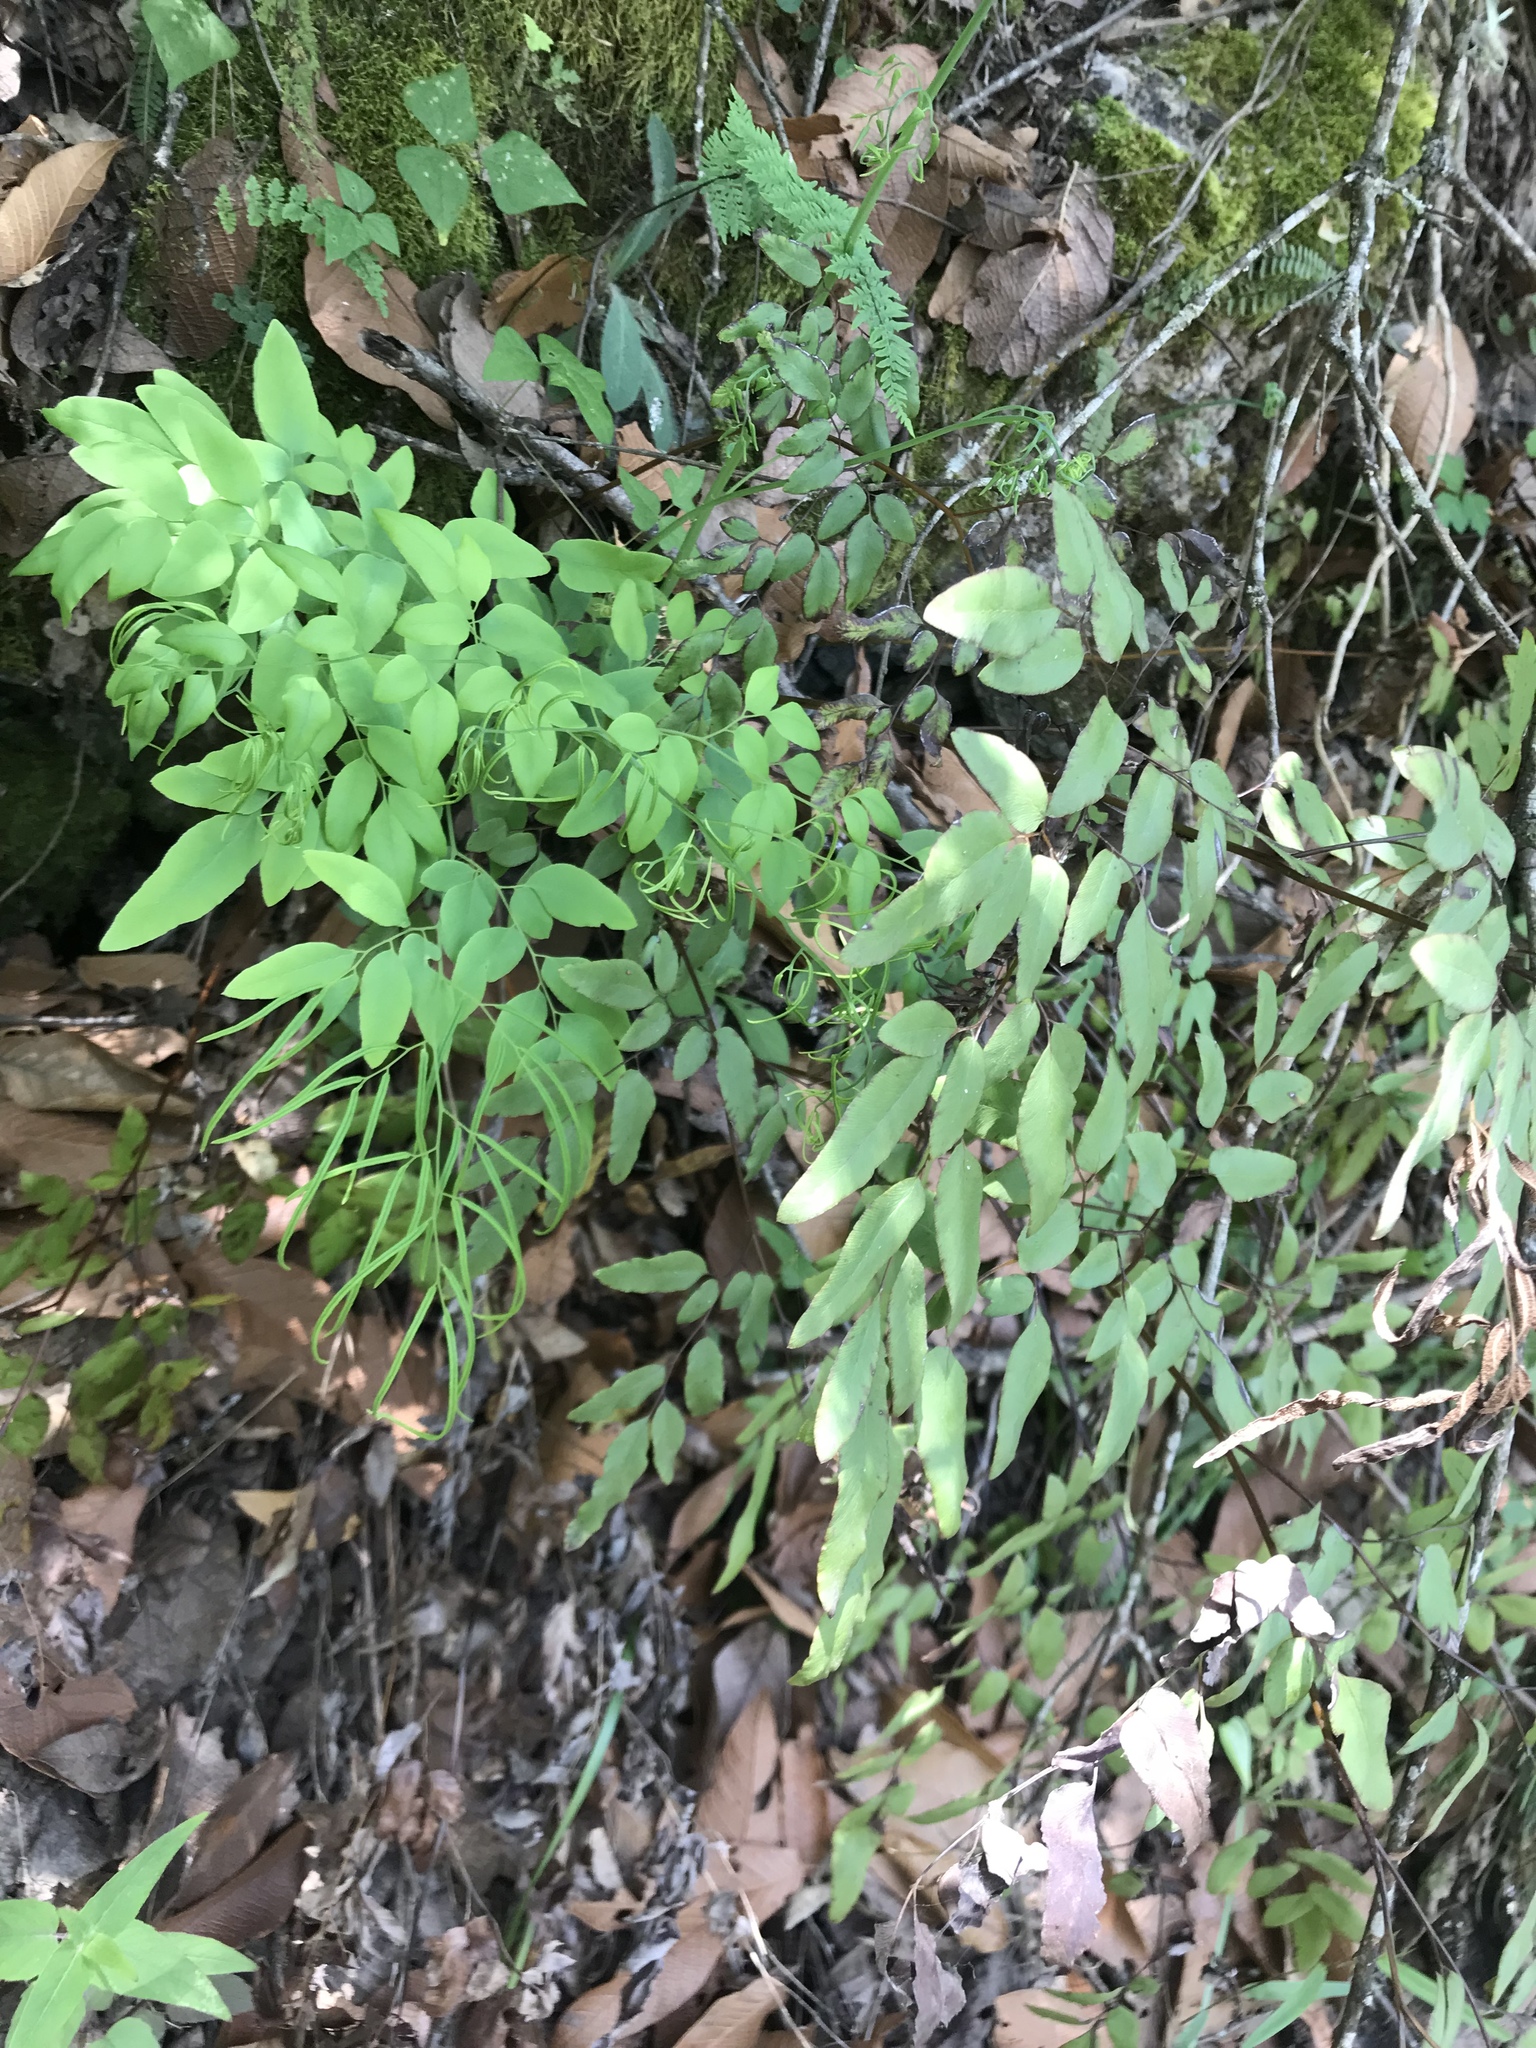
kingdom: Plantae
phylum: Tracheophyta
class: Polypodiopsida
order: Polypodiales
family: Pteridaceae
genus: Llavea
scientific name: Llavea cordifolia
